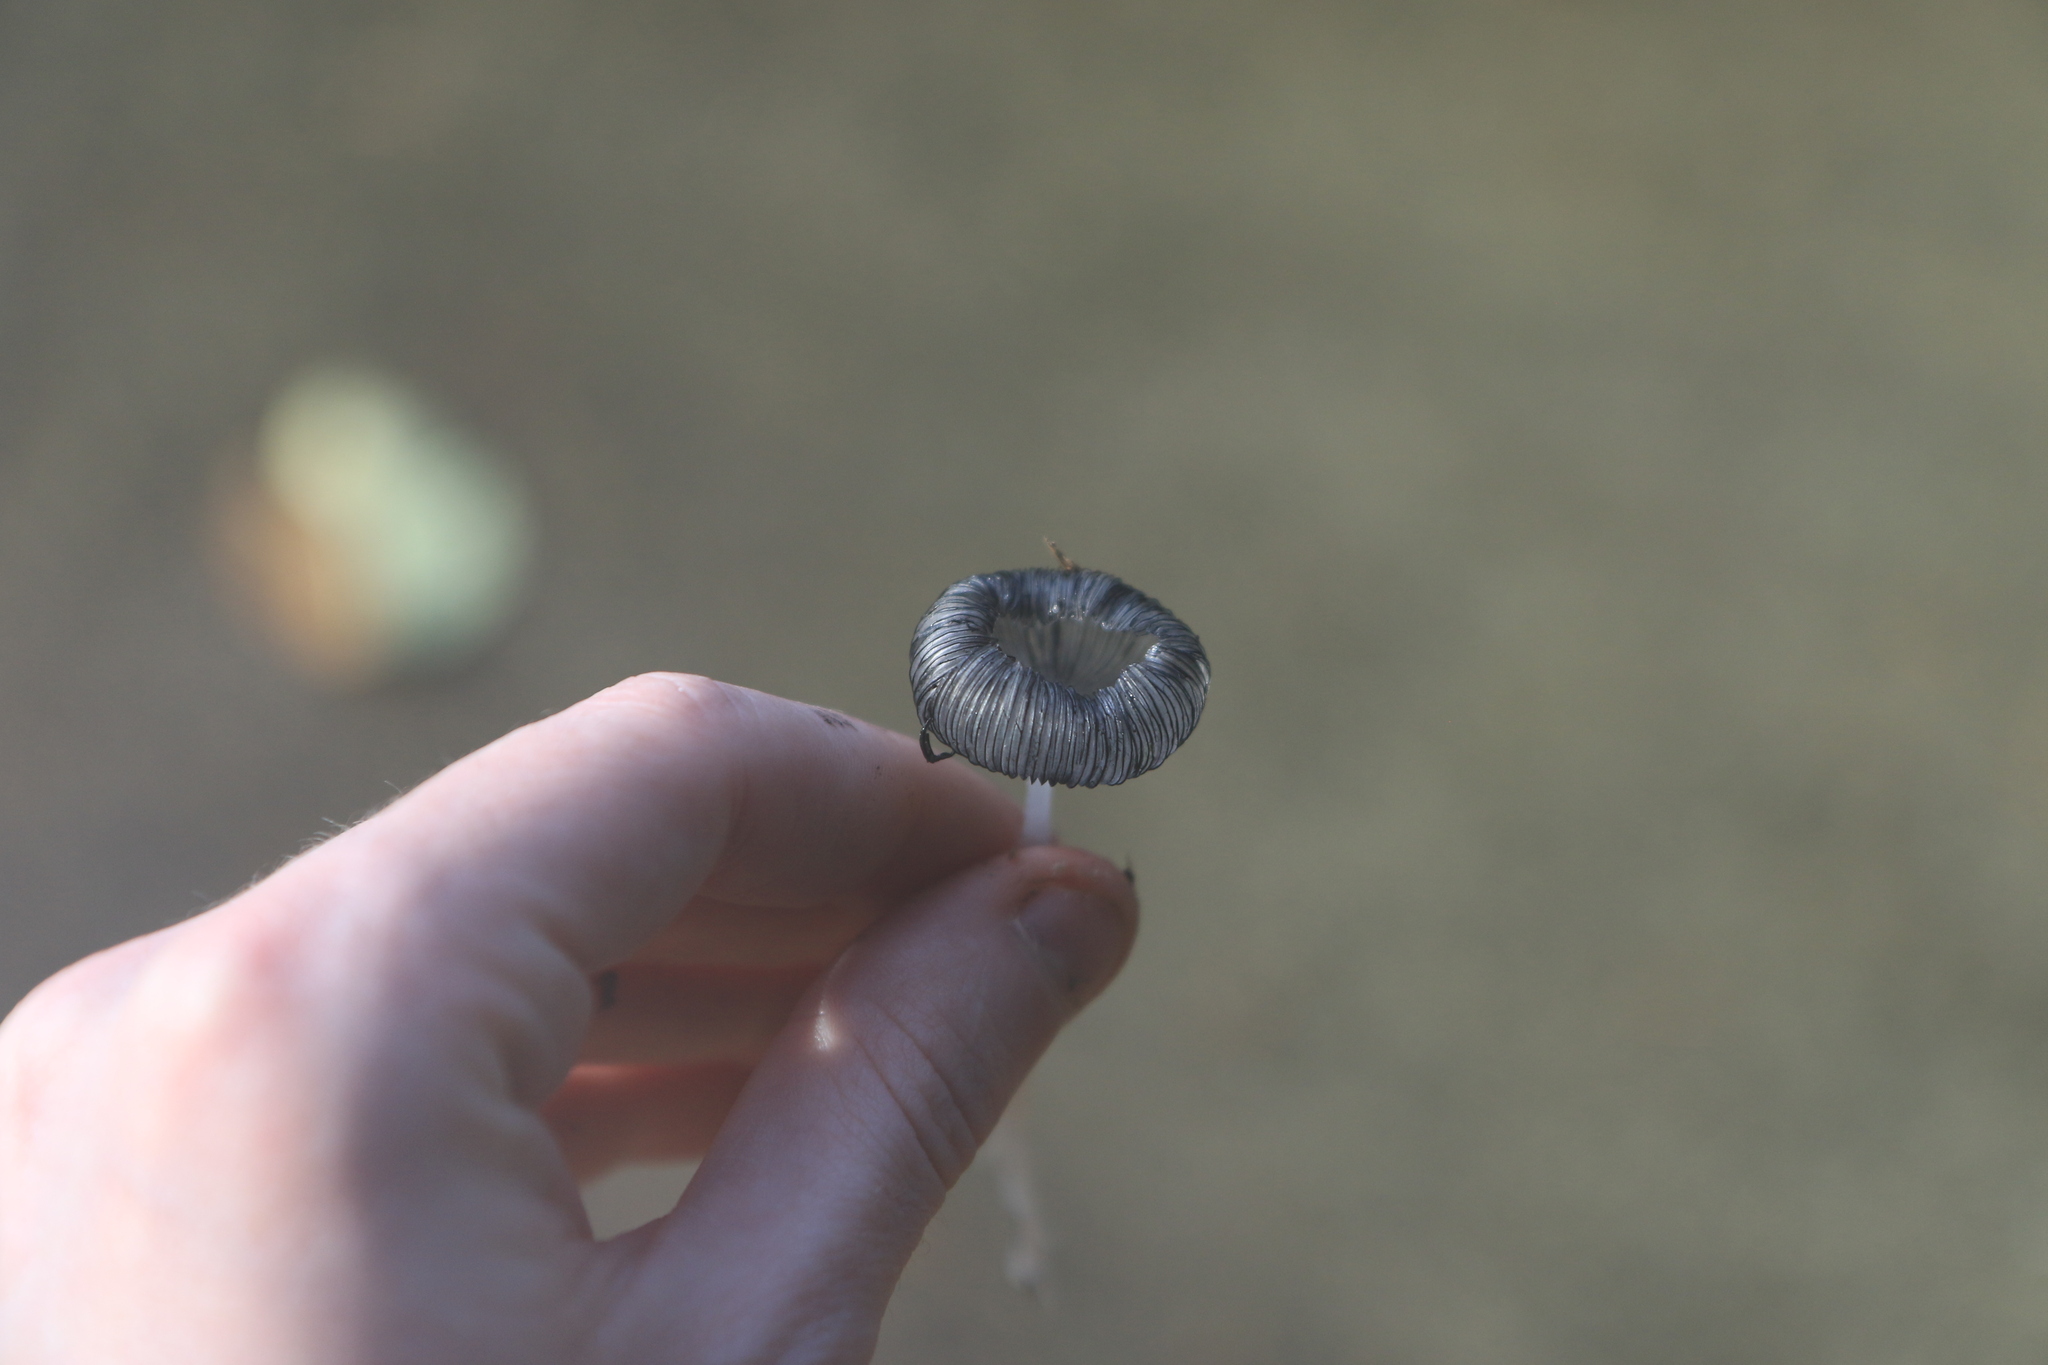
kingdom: Fungi
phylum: Basidiomycota
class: Agaricomycetes
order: Agaricales
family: Psathyrellaceae
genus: Coprinopsis
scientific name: Coprinopsis lagopus
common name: Hare'sfoot inkcap
